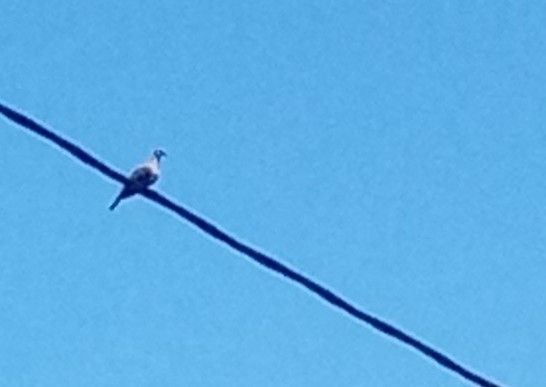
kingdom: Animalia
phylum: Chordata
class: Aves
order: Columbiformes
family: Columbidae
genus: Streptopelia
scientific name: Streptopelia decaocto
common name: Eurasian collared dove
